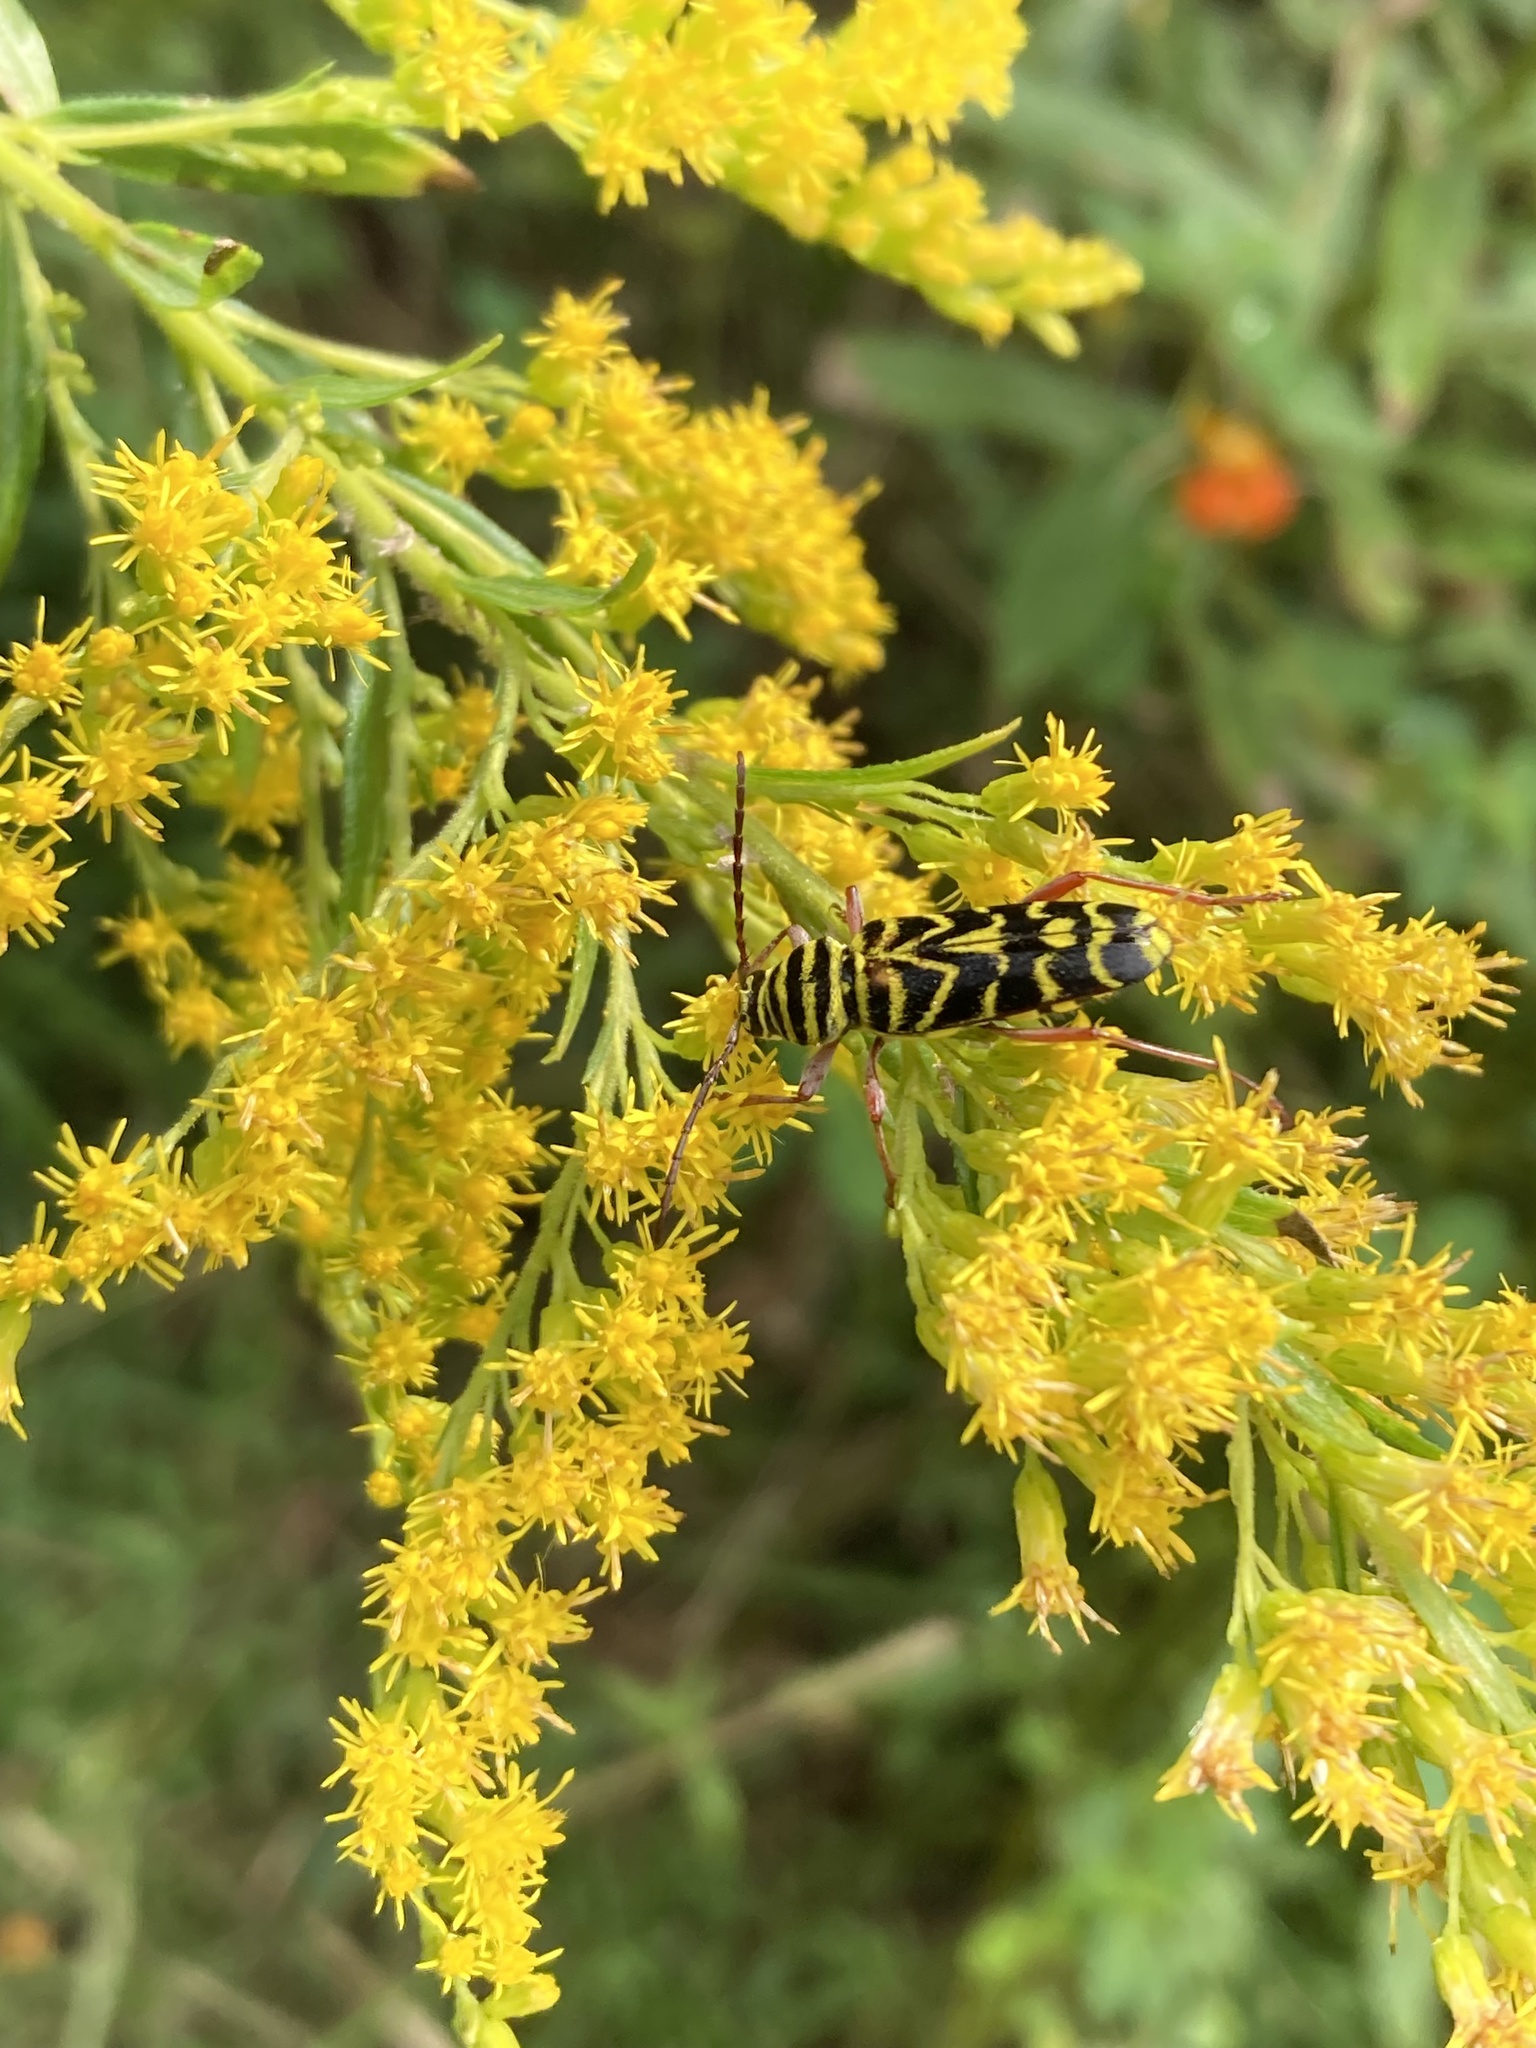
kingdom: Animalia
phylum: Arthropoda
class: Insecta
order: Coleoptera
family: Cerambycidae
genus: Megacyllene
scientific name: Megacyllene robiniae
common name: Locust borer
